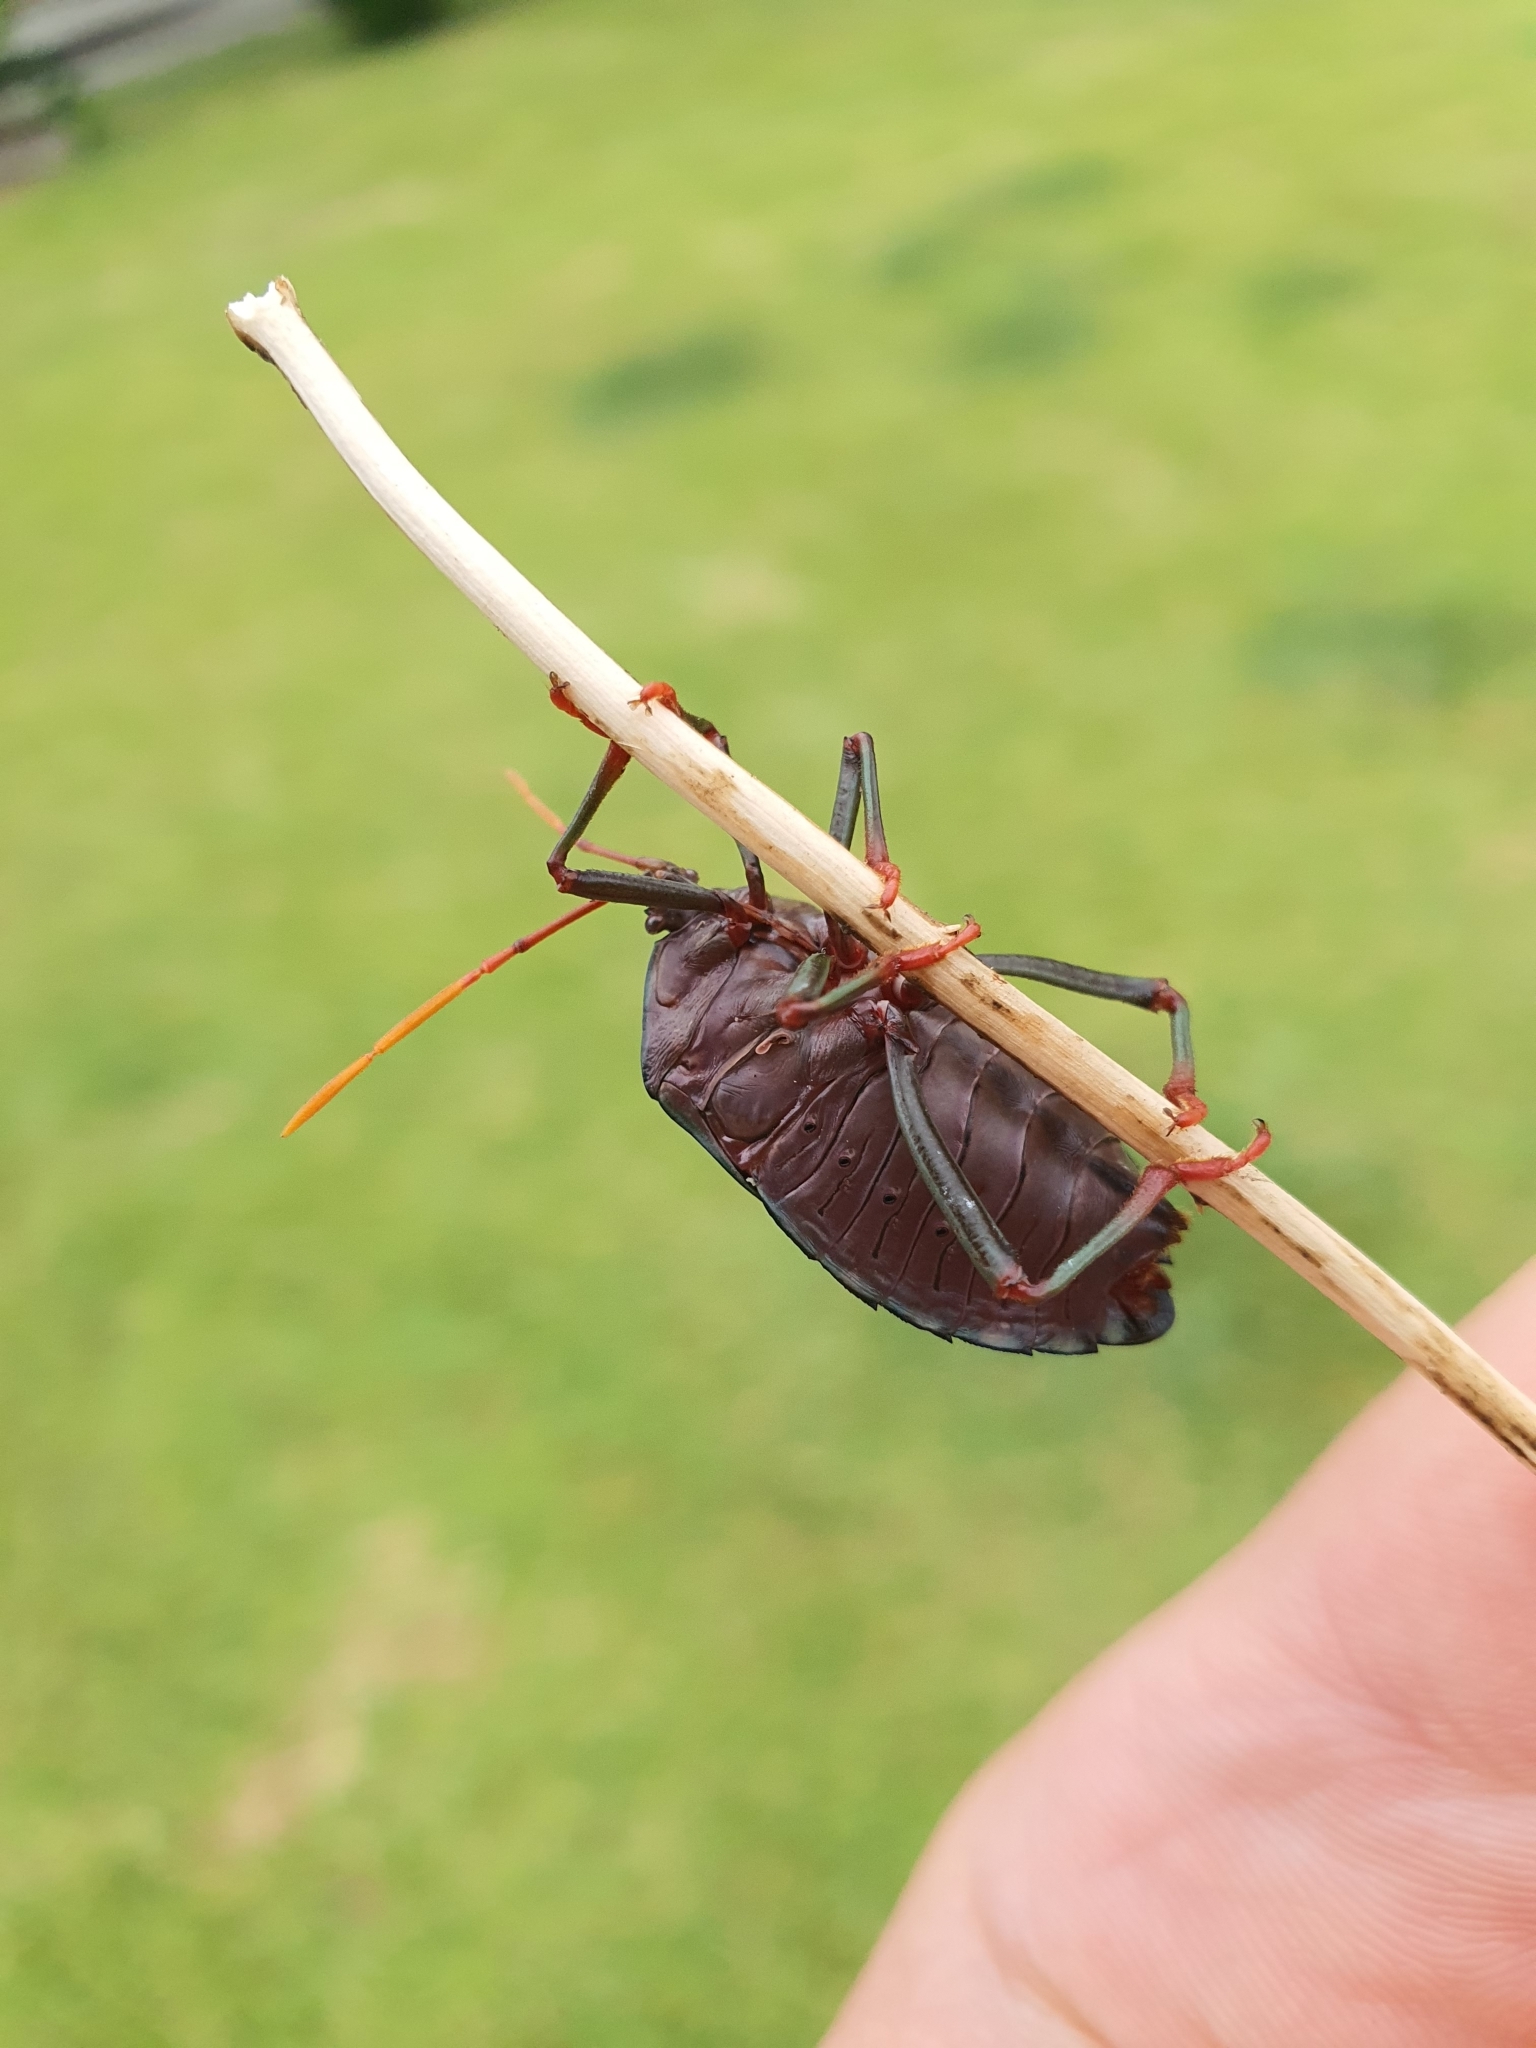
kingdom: Animalia
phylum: Arthropoda
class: Insecta
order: Hemiptera
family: Tessaratomidae
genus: Musgraveia
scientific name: Musgraveia sulciventris
